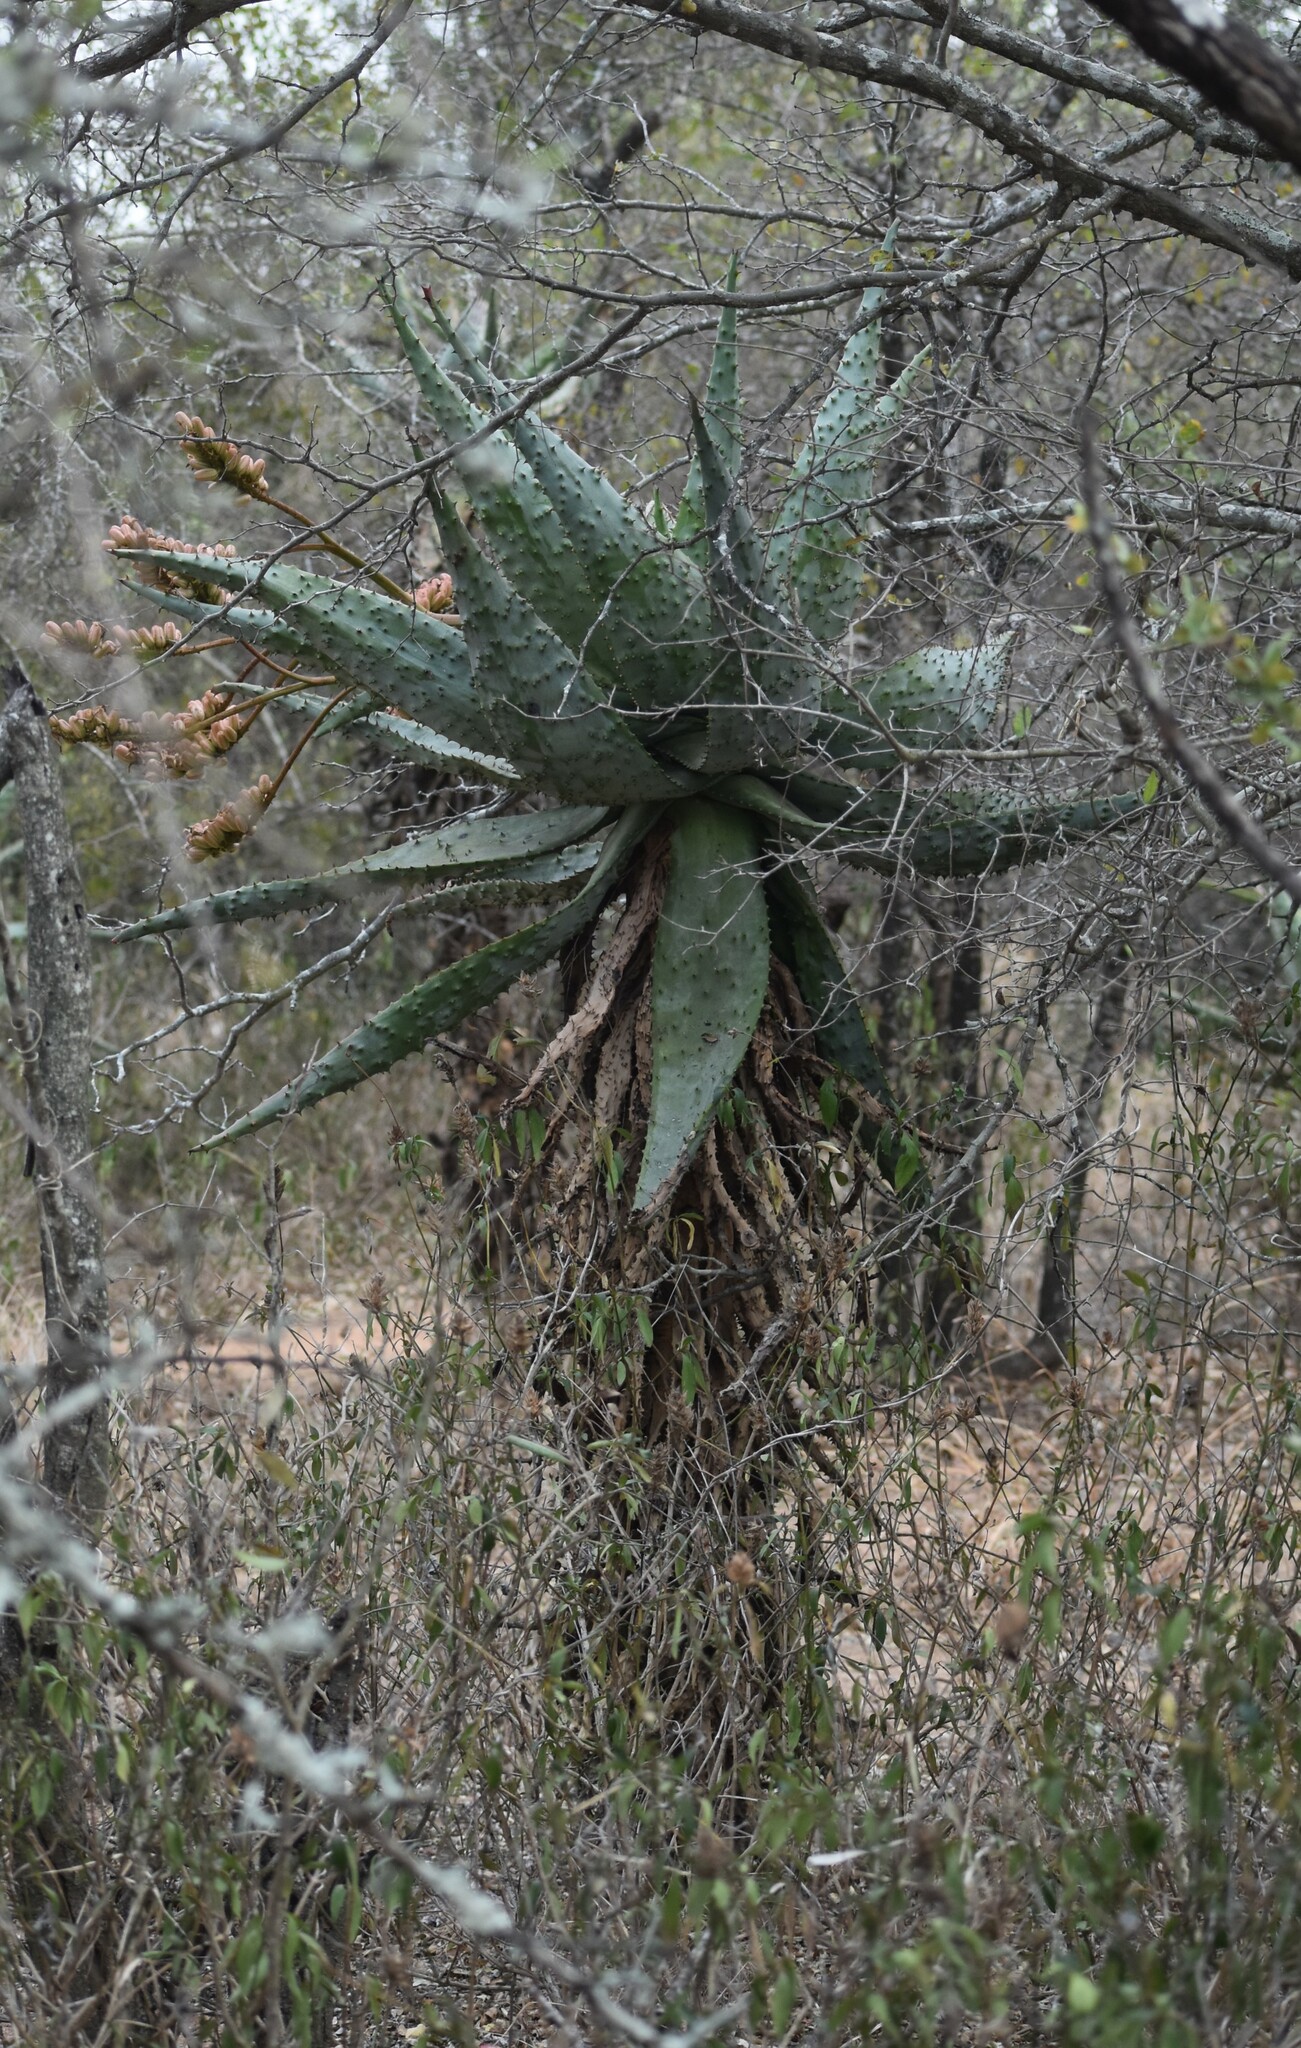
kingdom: Plantae
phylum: Tracheophyta
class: Liliopsida
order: Asparagales
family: Asphodelaceae
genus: Aloe
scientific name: Aloe marlothii
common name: Flat-flowered aloe
